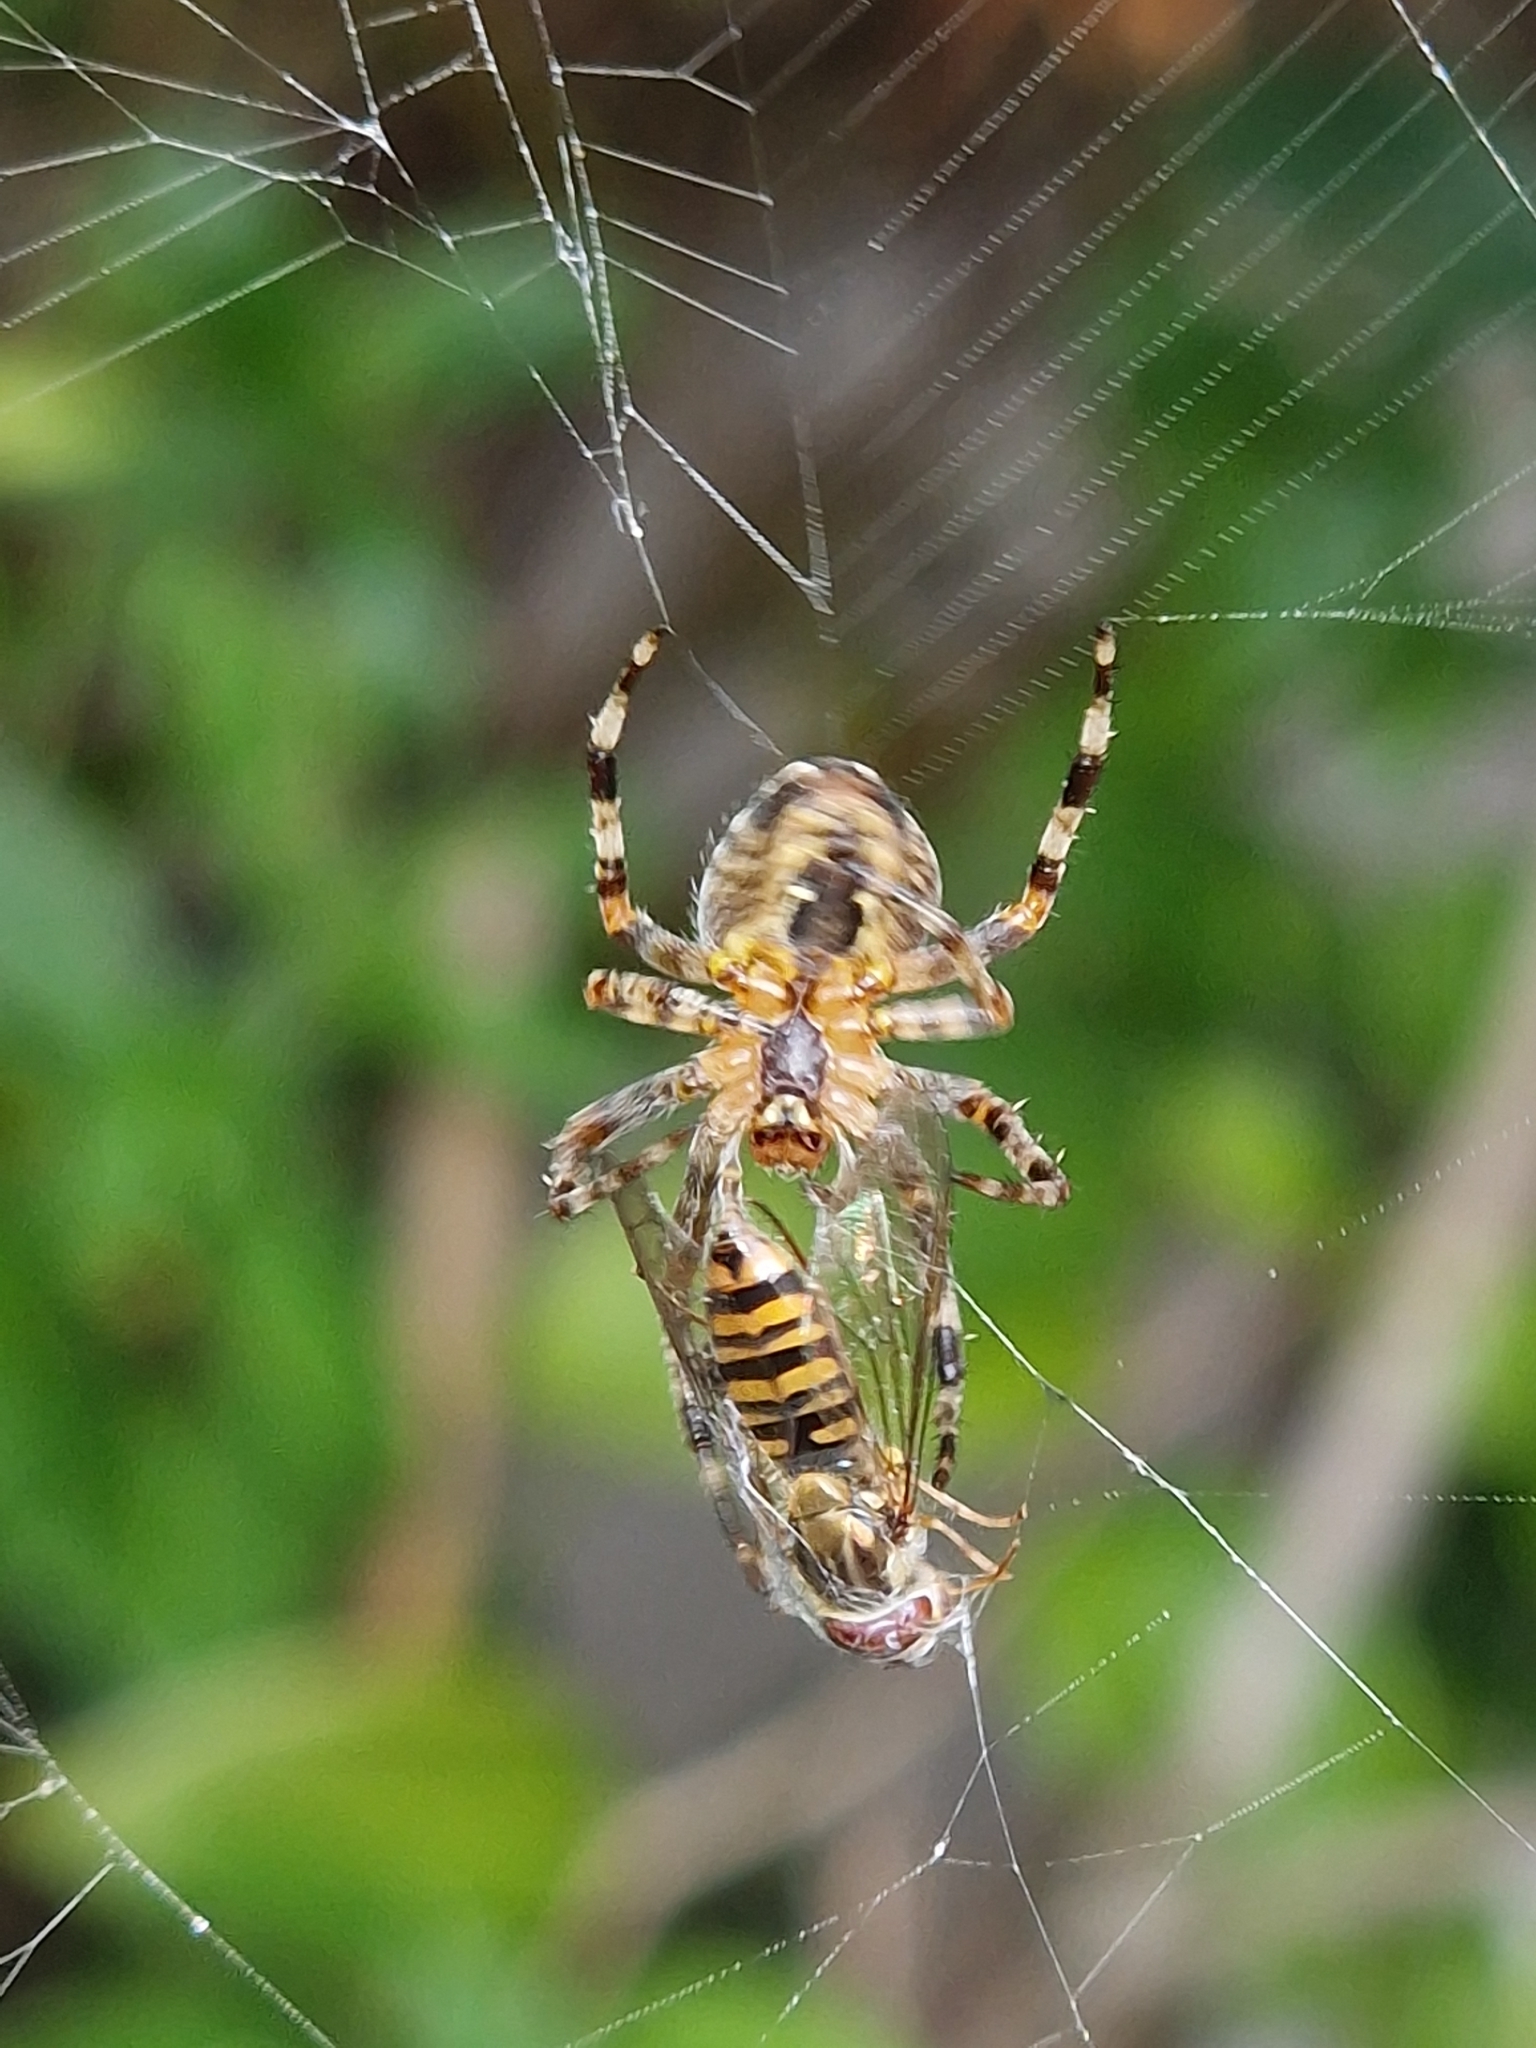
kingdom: Animalia
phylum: Arthropoda
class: Insecta
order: Diptera
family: Syrphidae
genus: Episyrphus
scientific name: Episyrphus balteatus
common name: Marmalade hoverfly
